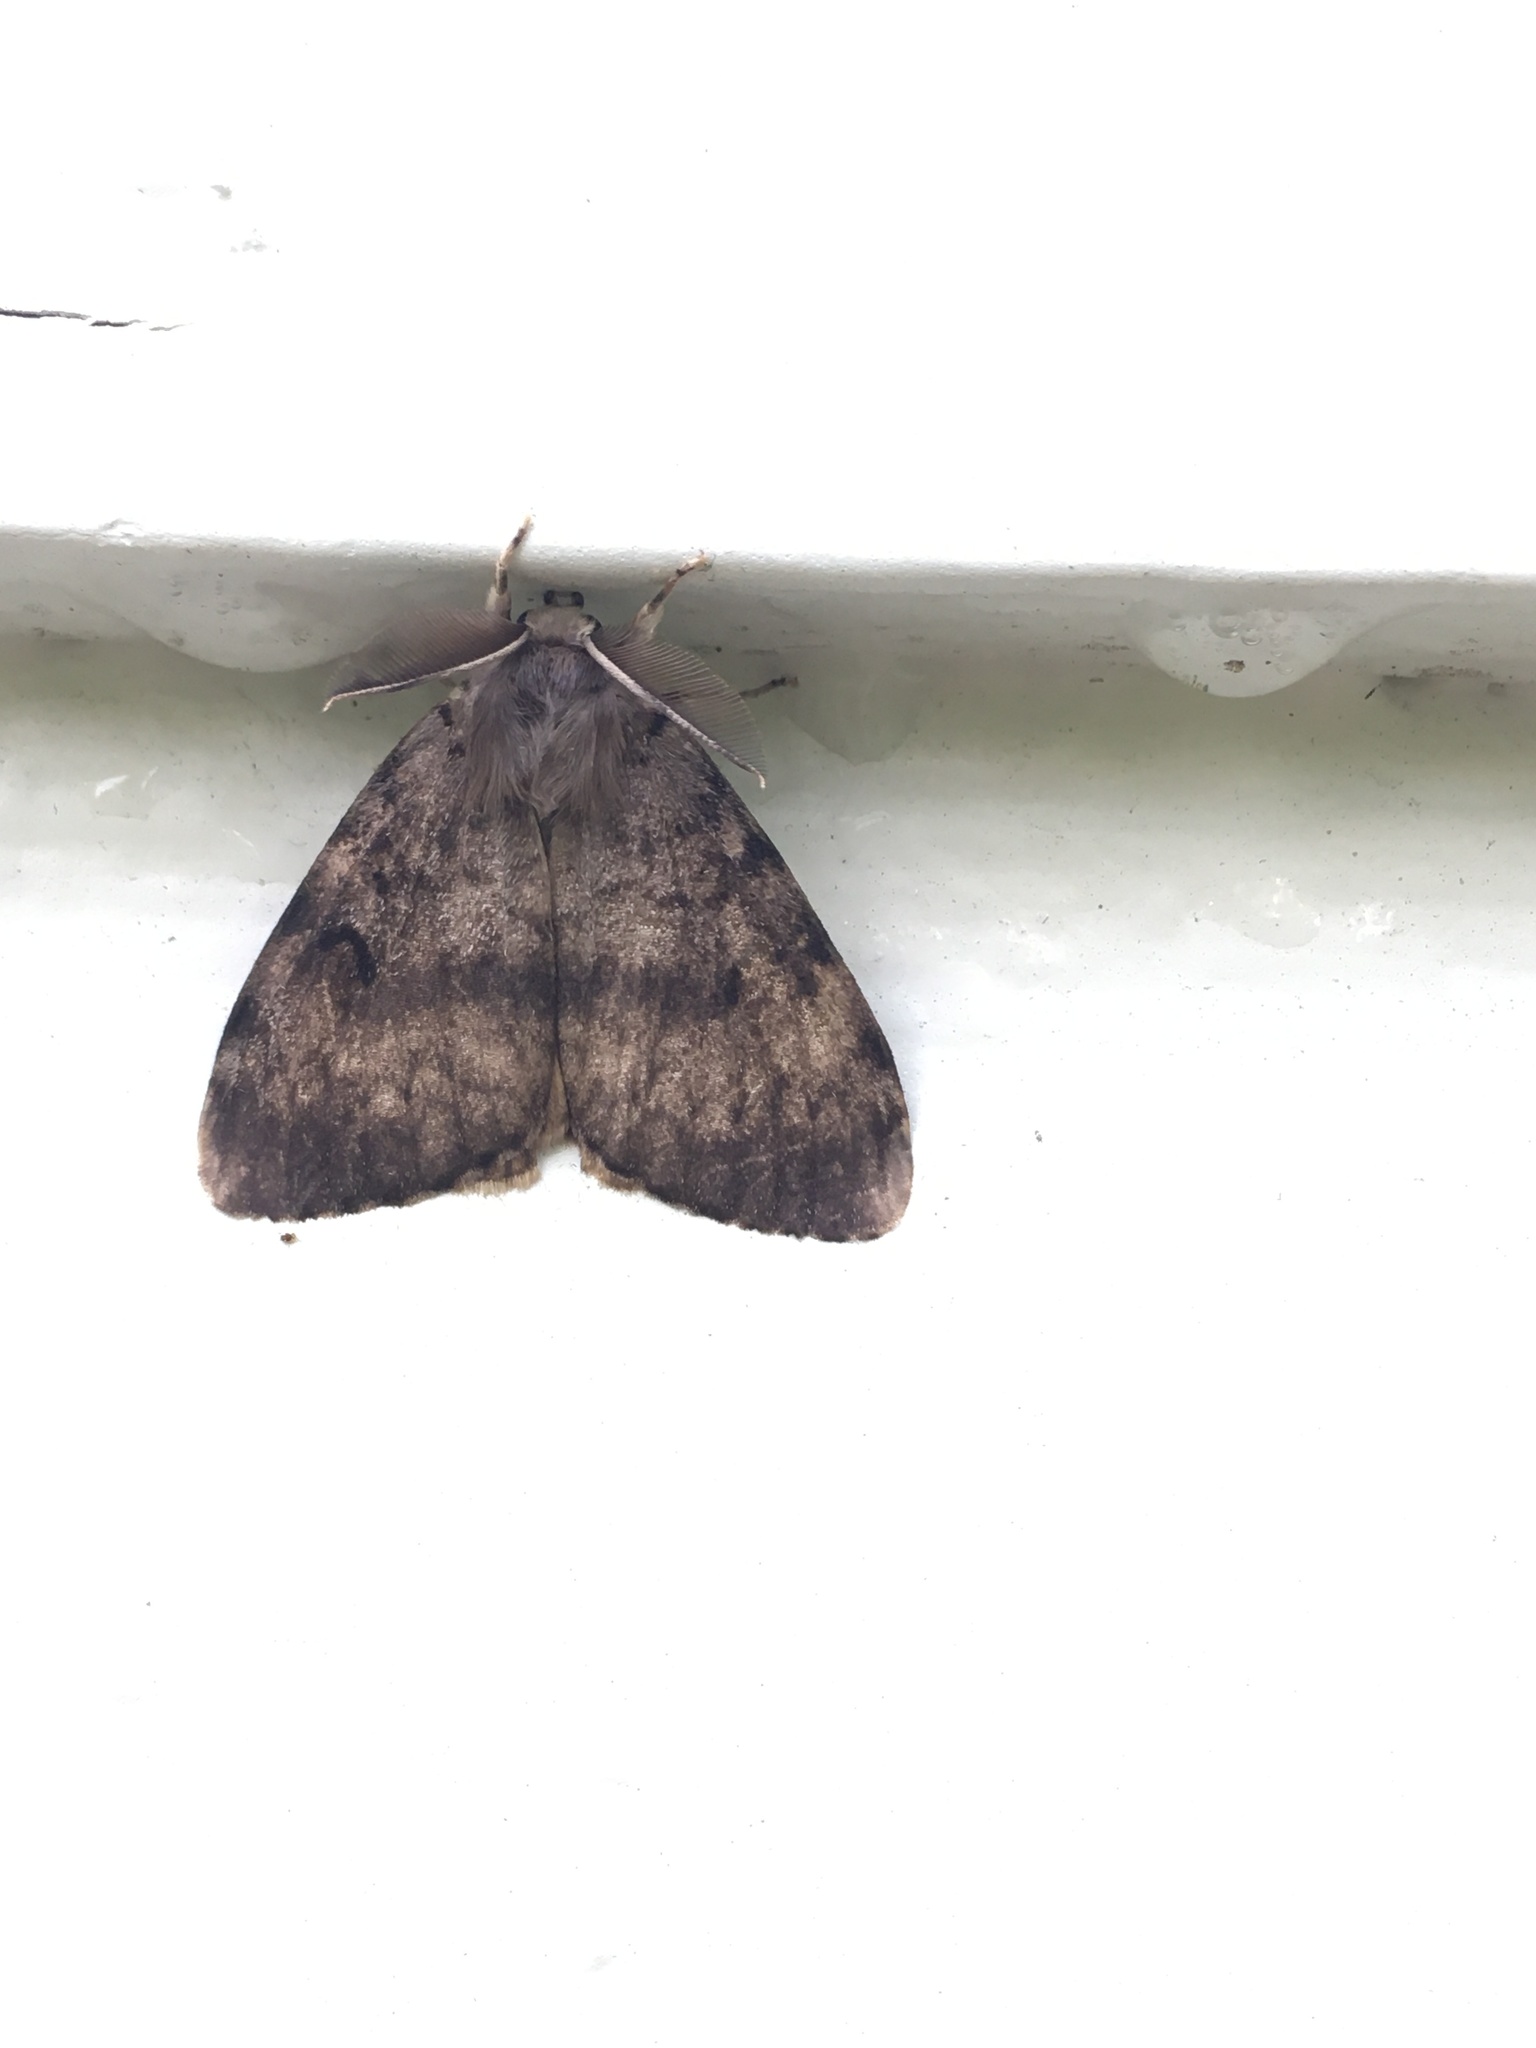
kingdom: Animalia
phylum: Arthropoda
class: Insecta
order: Lepidoptera
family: Erebidae
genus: Lymantria
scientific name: Lymantria dispar
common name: Gypsy moth
